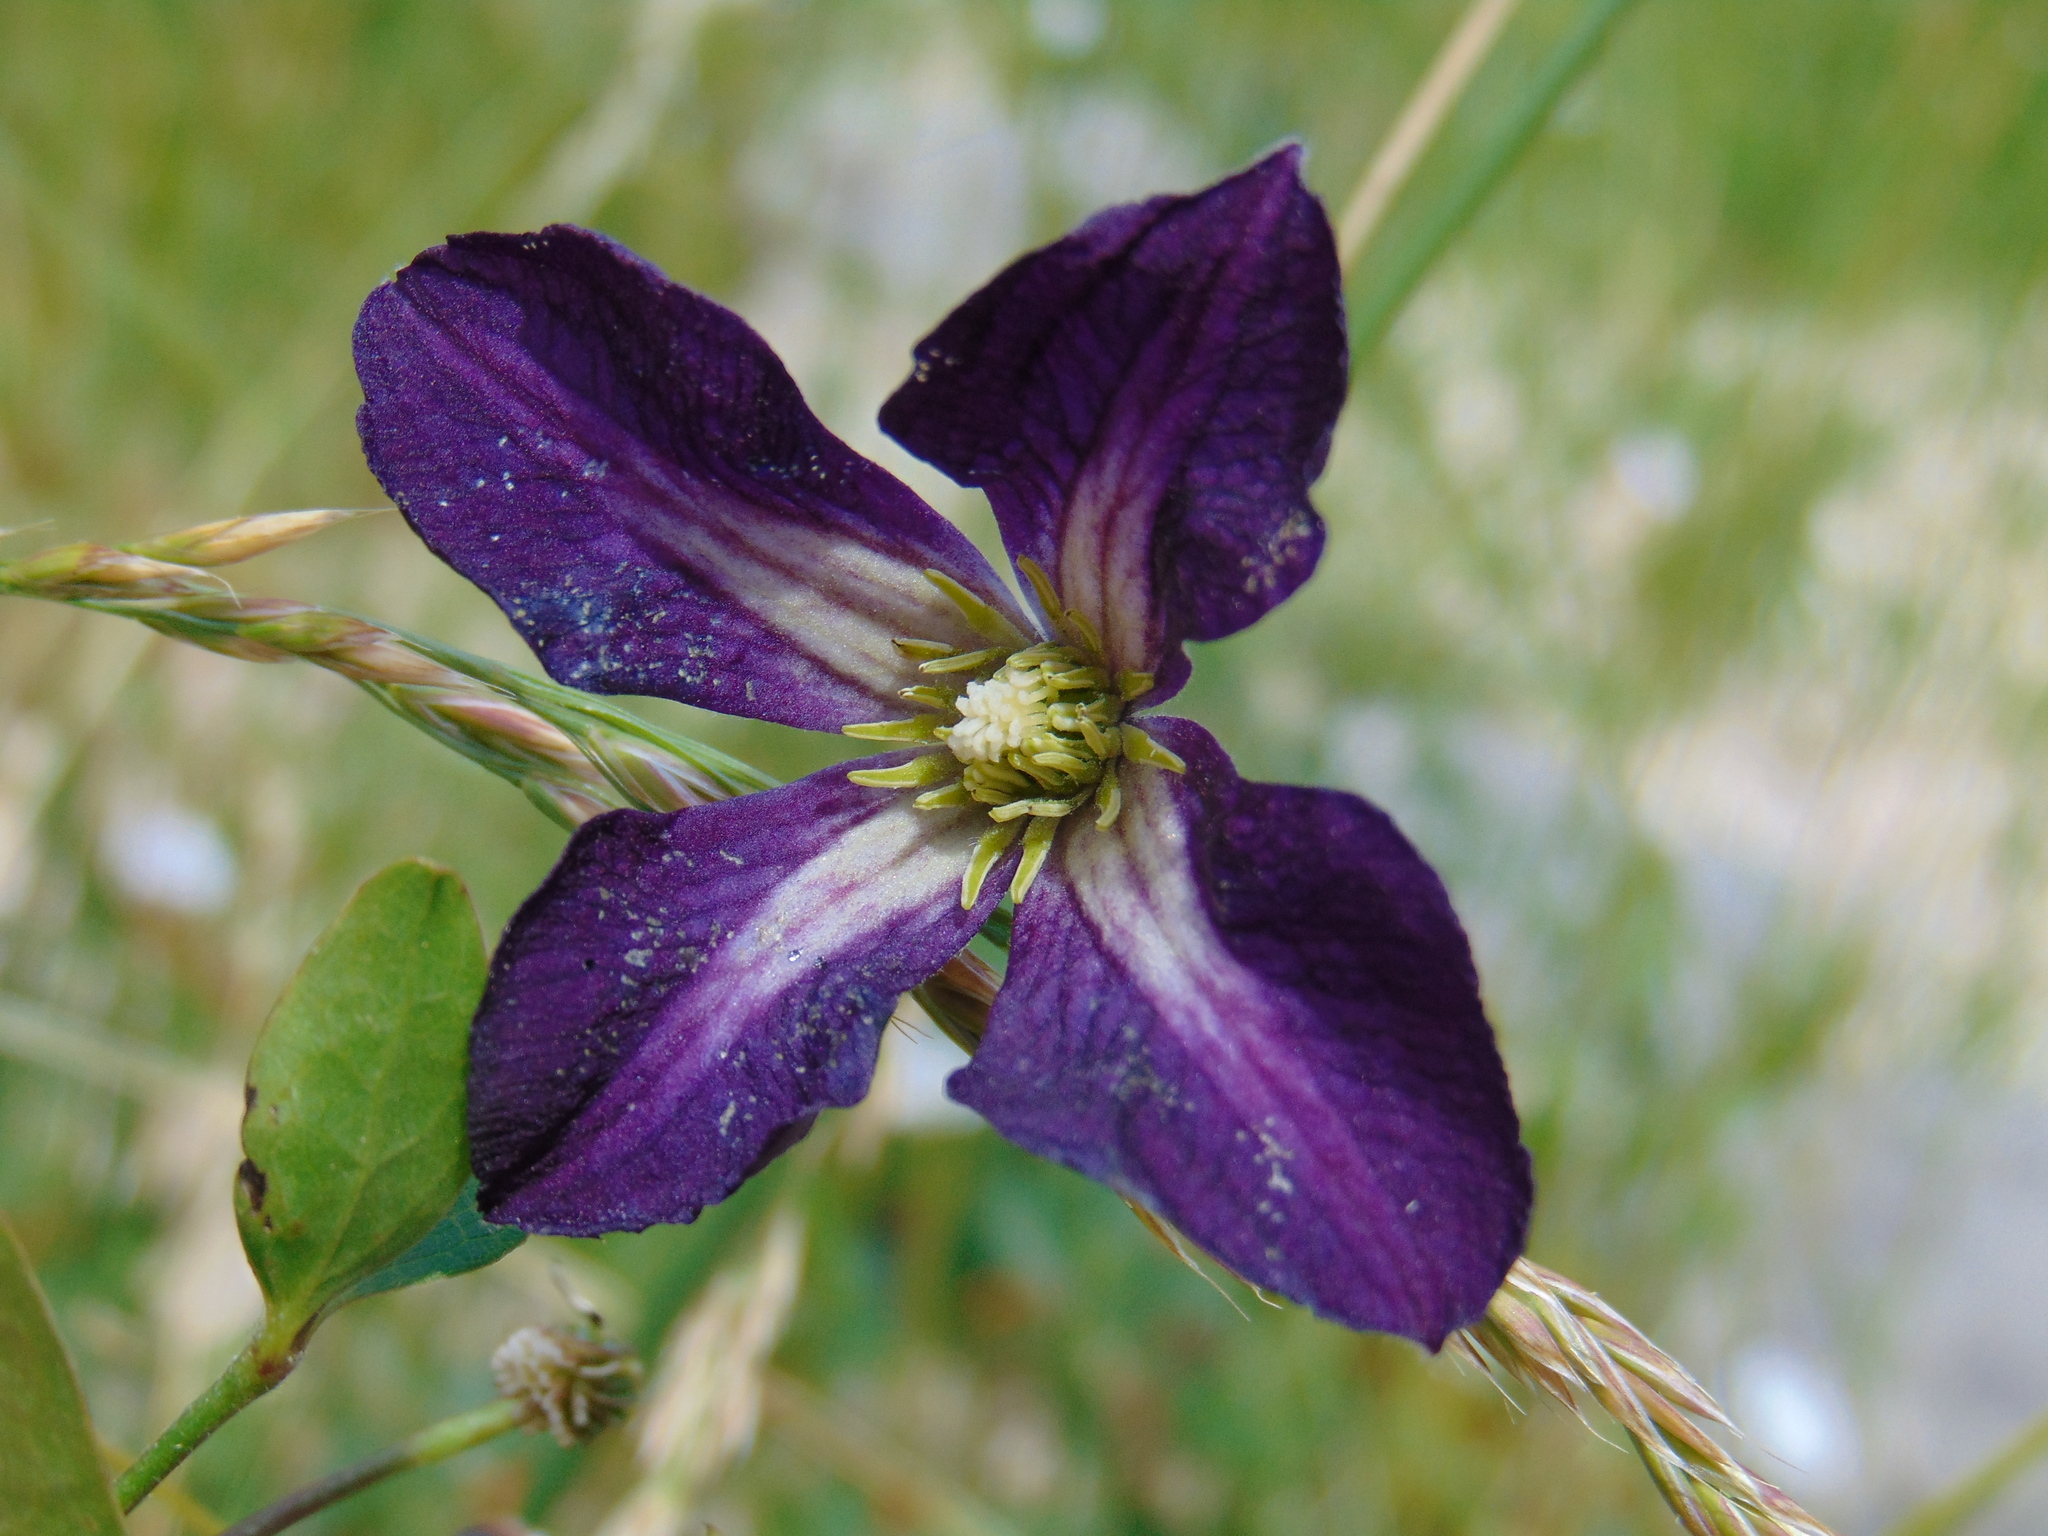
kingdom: Plantae
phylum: Tracheophyta
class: Magnoliopsida
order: Ranunculales
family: Ranunculaceae
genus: Clematis
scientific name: Clematis viticella
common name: Purple clematis
